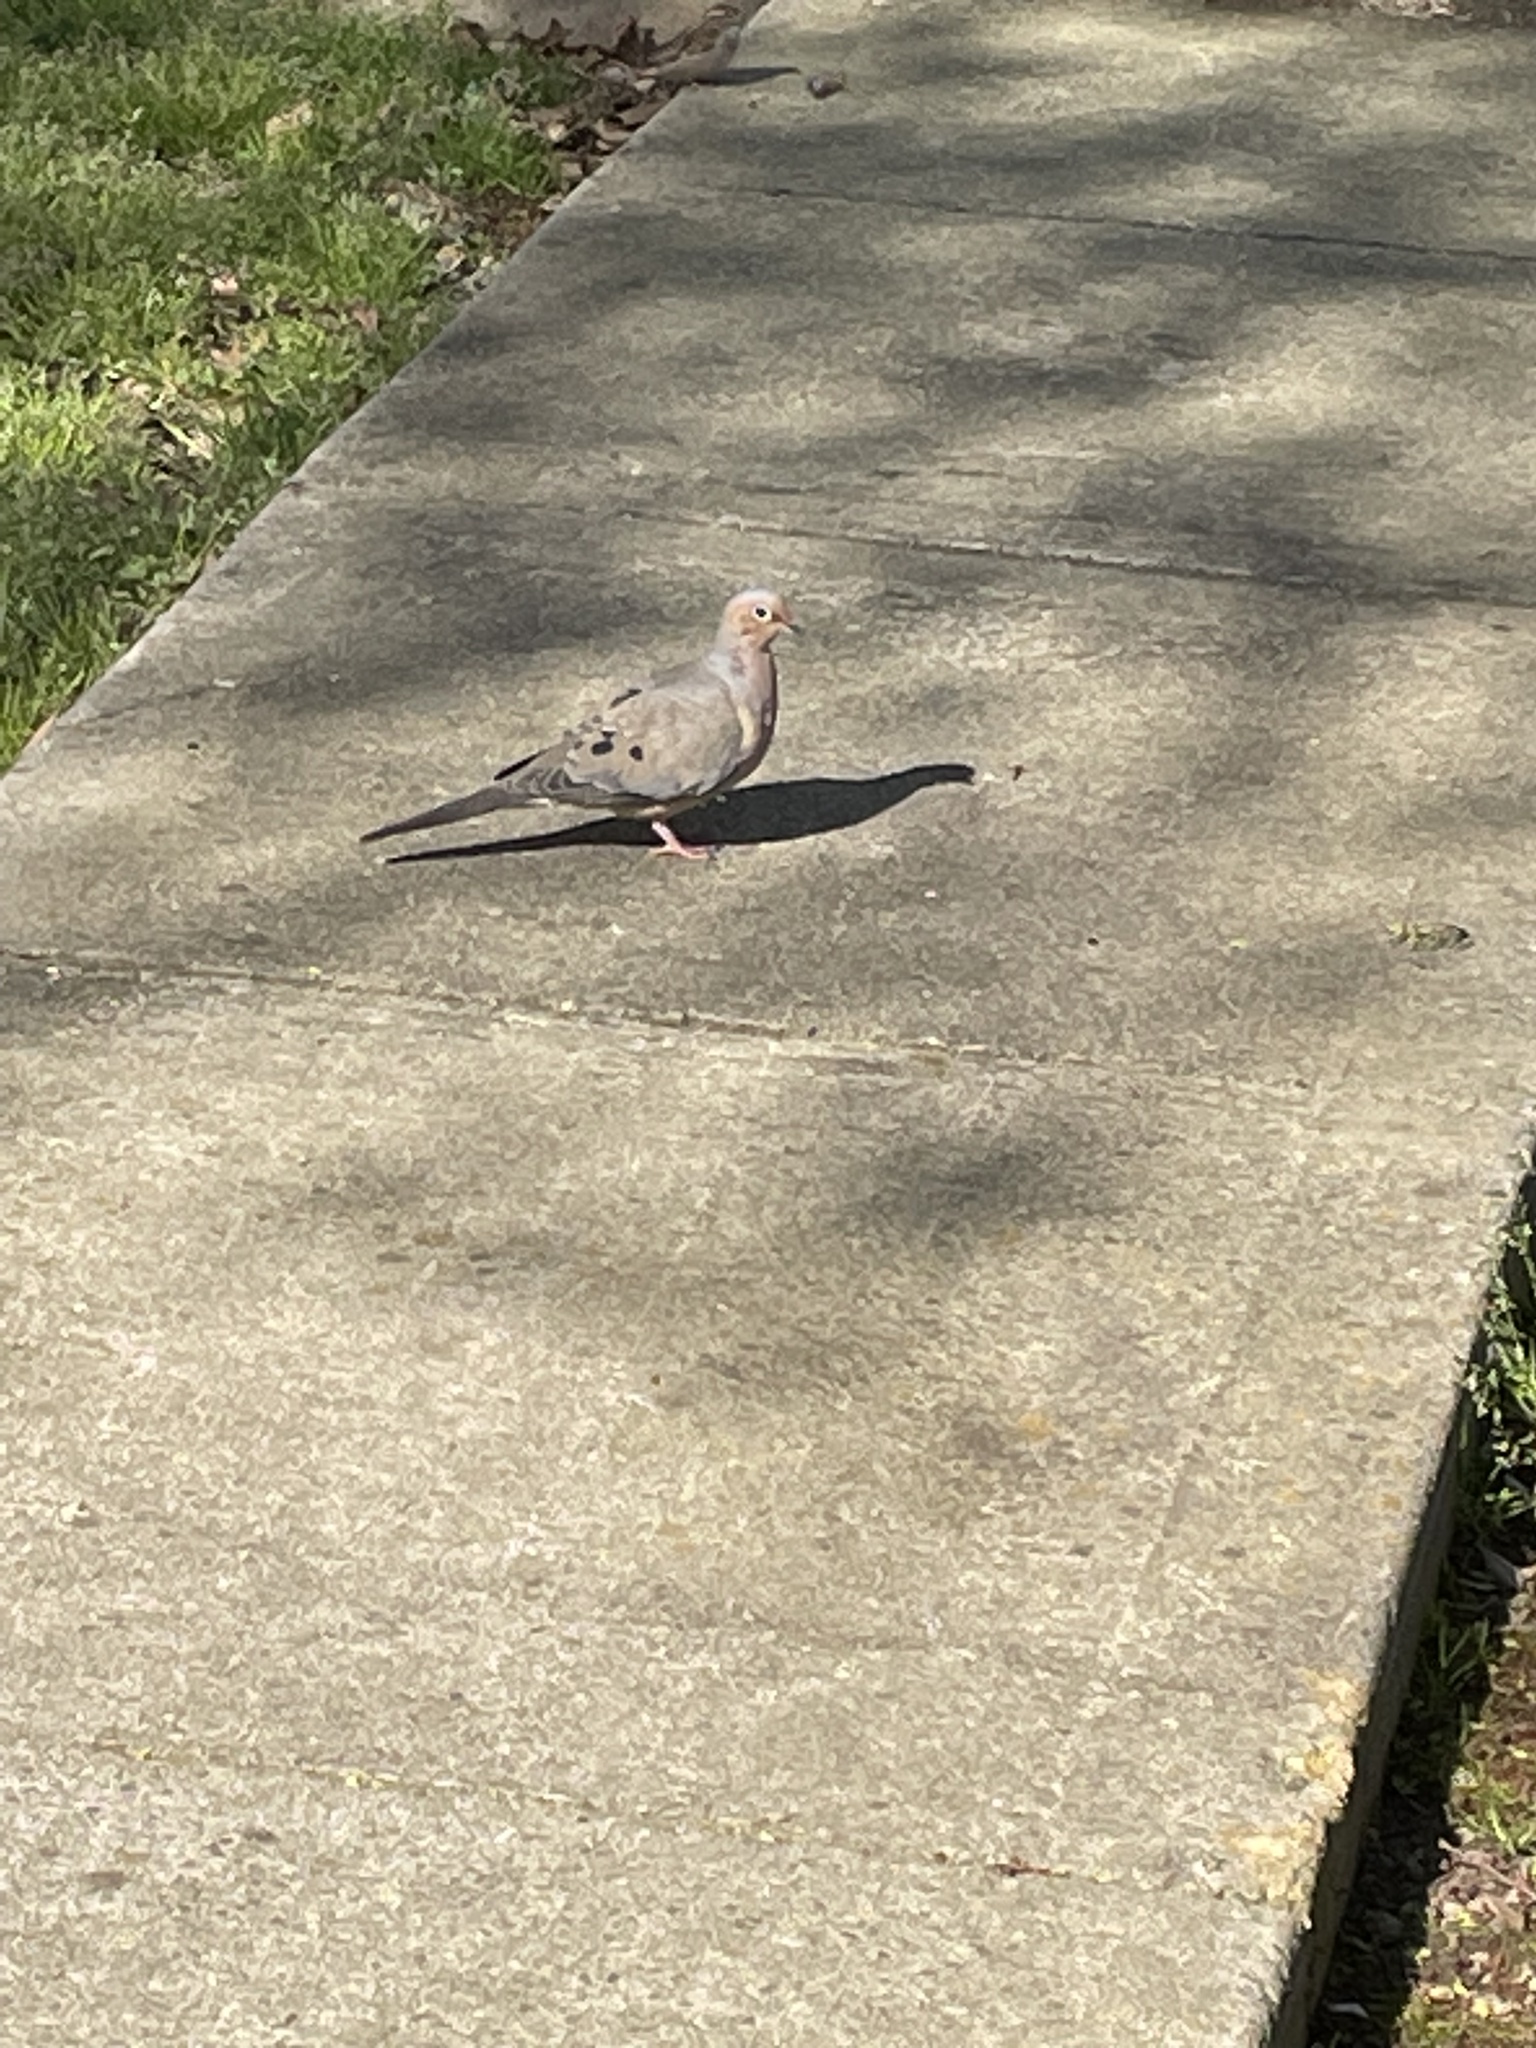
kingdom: Animalia
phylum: Chordata
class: Aves
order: Columbiformes
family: Columbidae
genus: Zenaida
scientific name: Zenaida macroura
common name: Mourning dove
